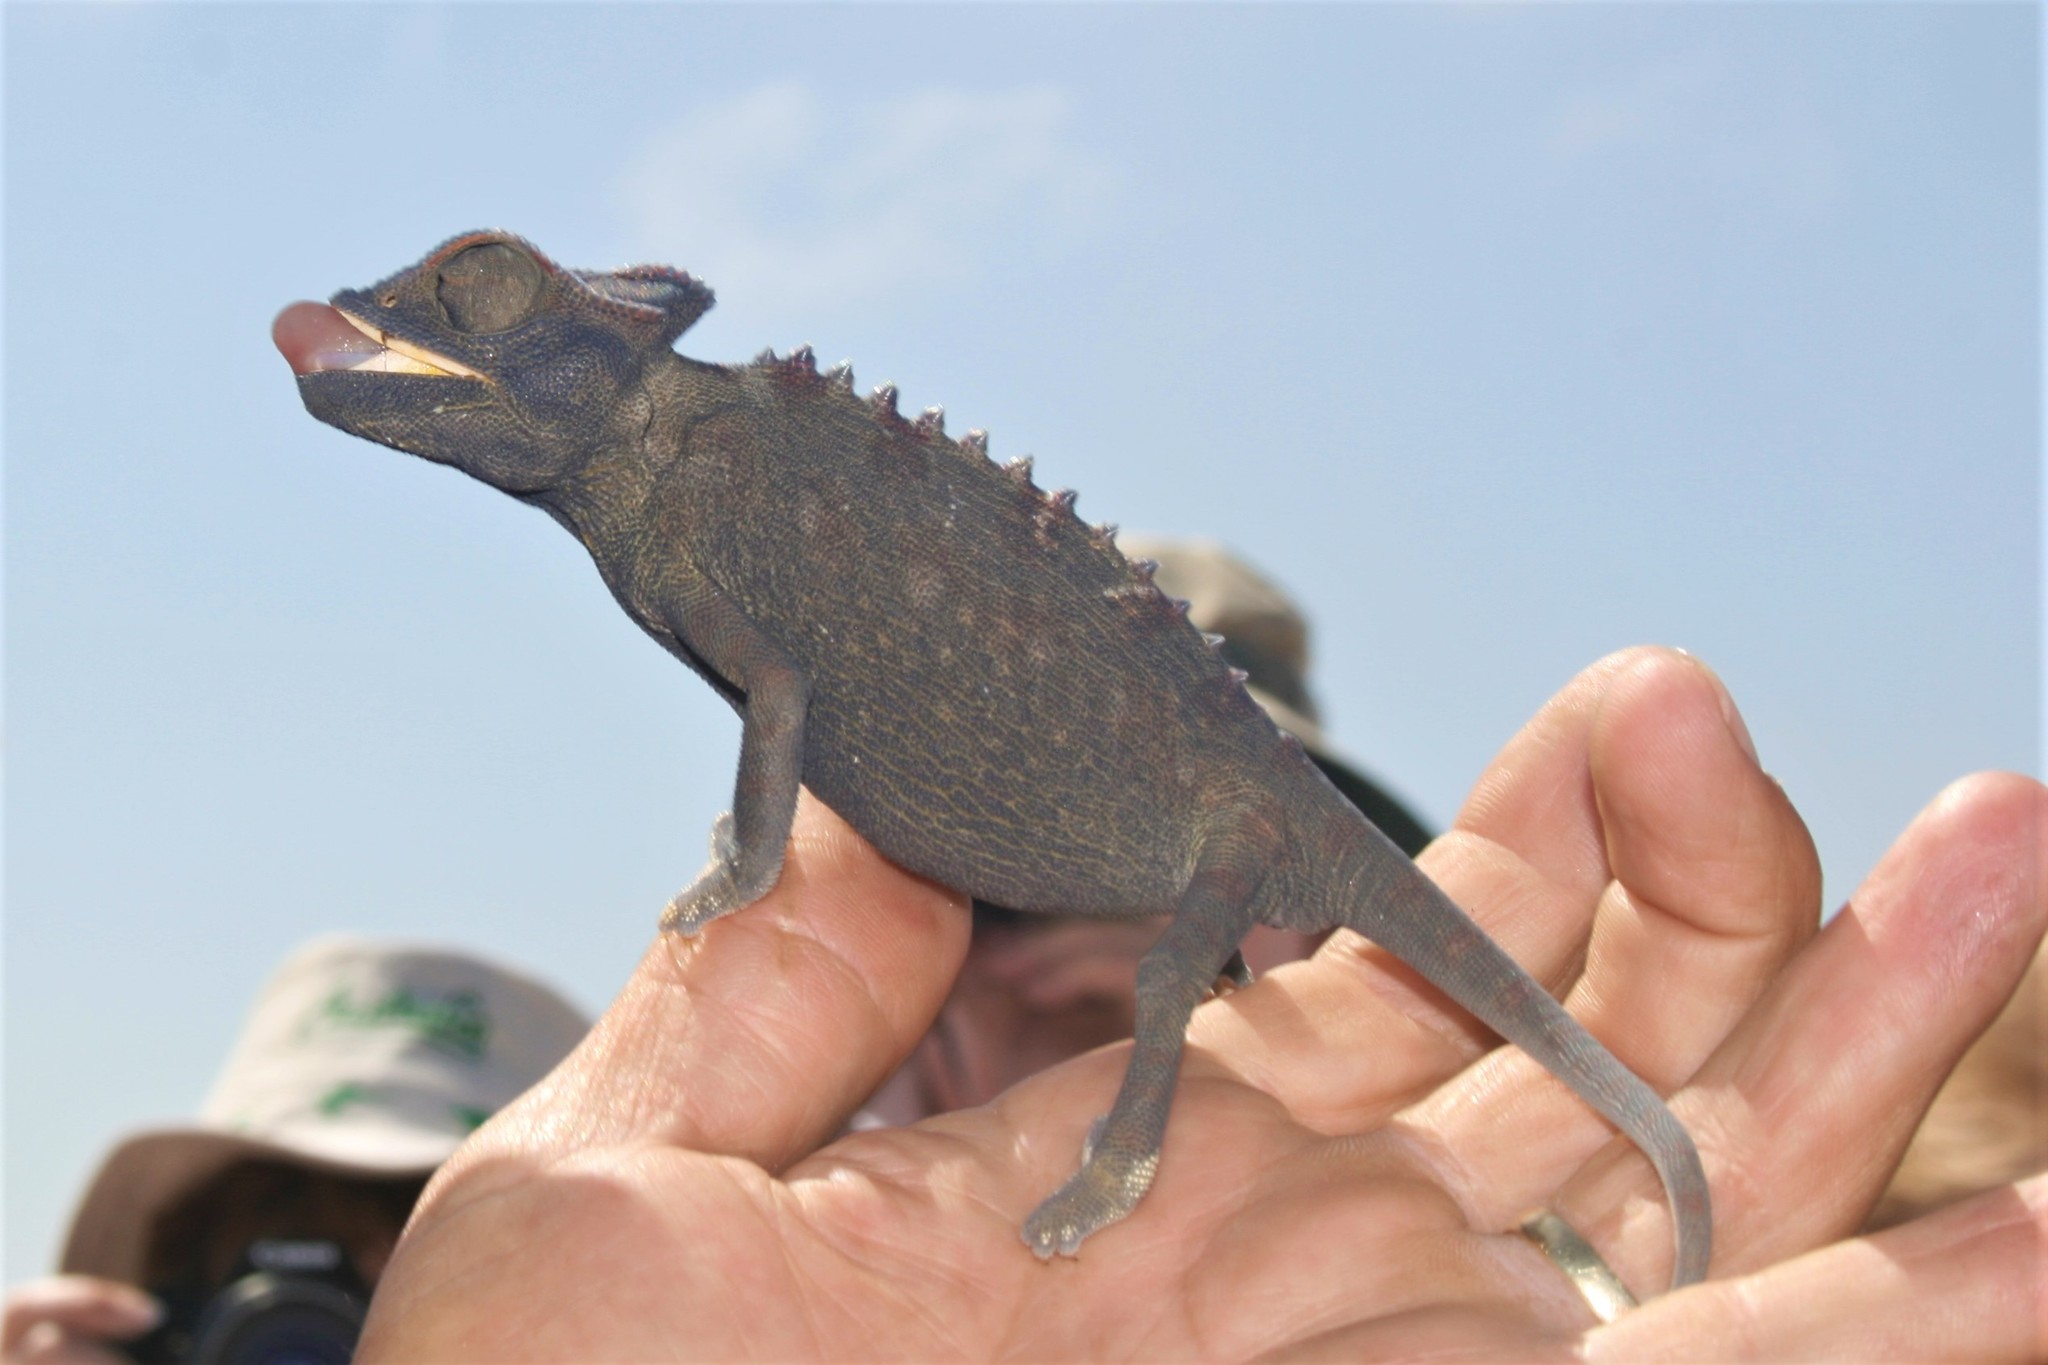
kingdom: Animalia
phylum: Chordata
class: Squamata
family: Chamaeleonidae
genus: Chamaeleo
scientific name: Chamaeleo namaquensis
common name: Namaqua chameleon
